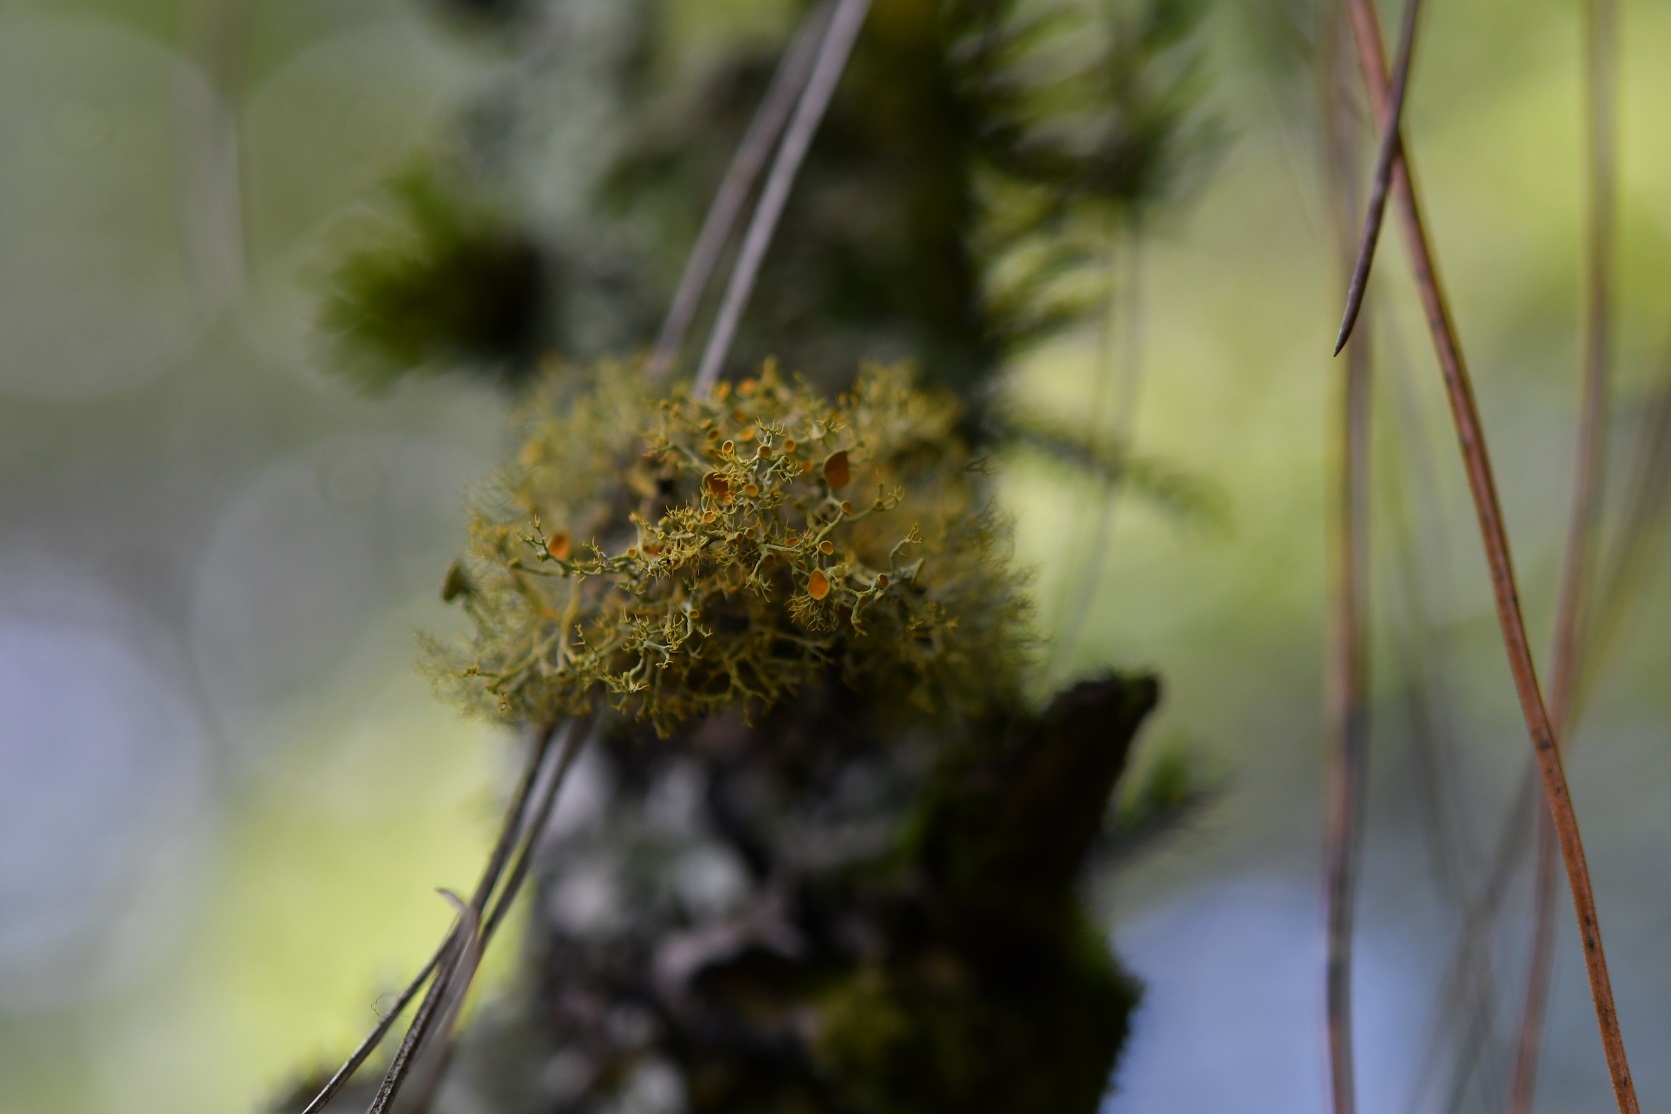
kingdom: Fungi
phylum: Ascomycota
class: Lecanoromycetes
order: Teloschistales
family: Teloschistaceae
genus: Teloschistes
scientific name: Teloschistes exilis
